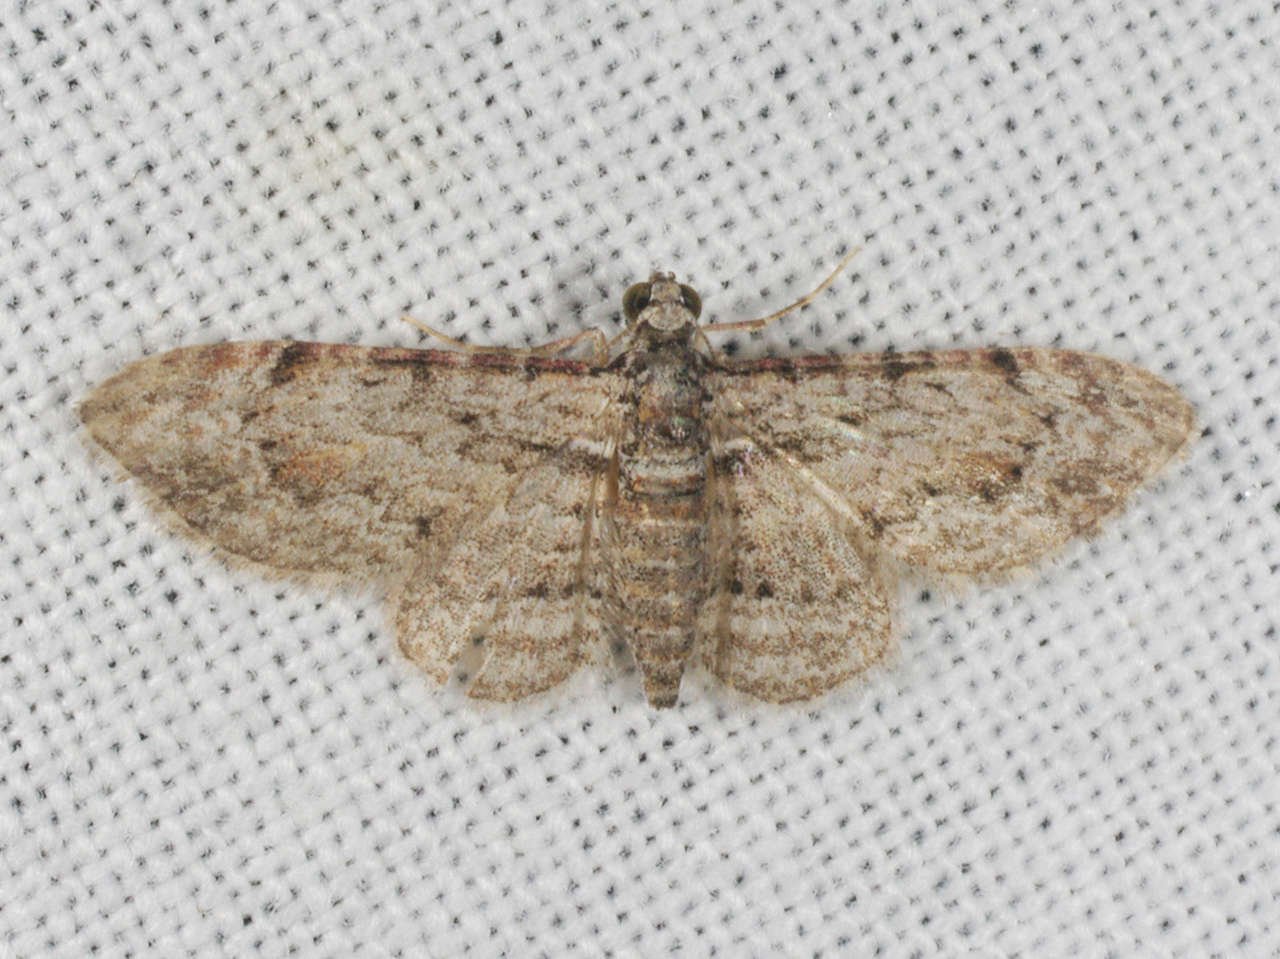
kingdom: Animalia
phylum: Arthropoda
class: Insecta
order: Lepidoptera
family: Geometridae
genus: Chloroclystis
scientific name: Chloroclystis insigillata
